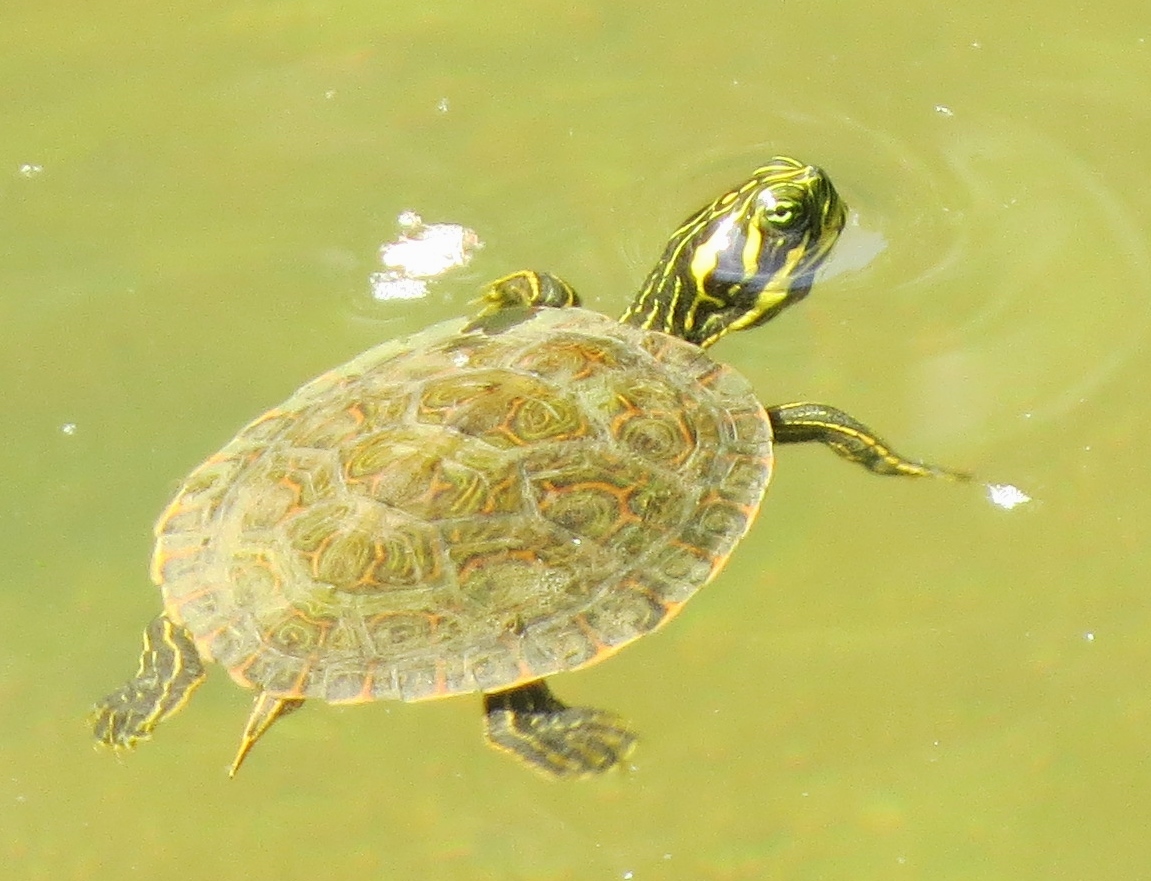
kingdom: Animalia
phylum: Chordata
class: Testudines
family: Emydidae
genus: Pseudemys
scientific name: Pseudemys concinna
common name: Eastern river cooter
